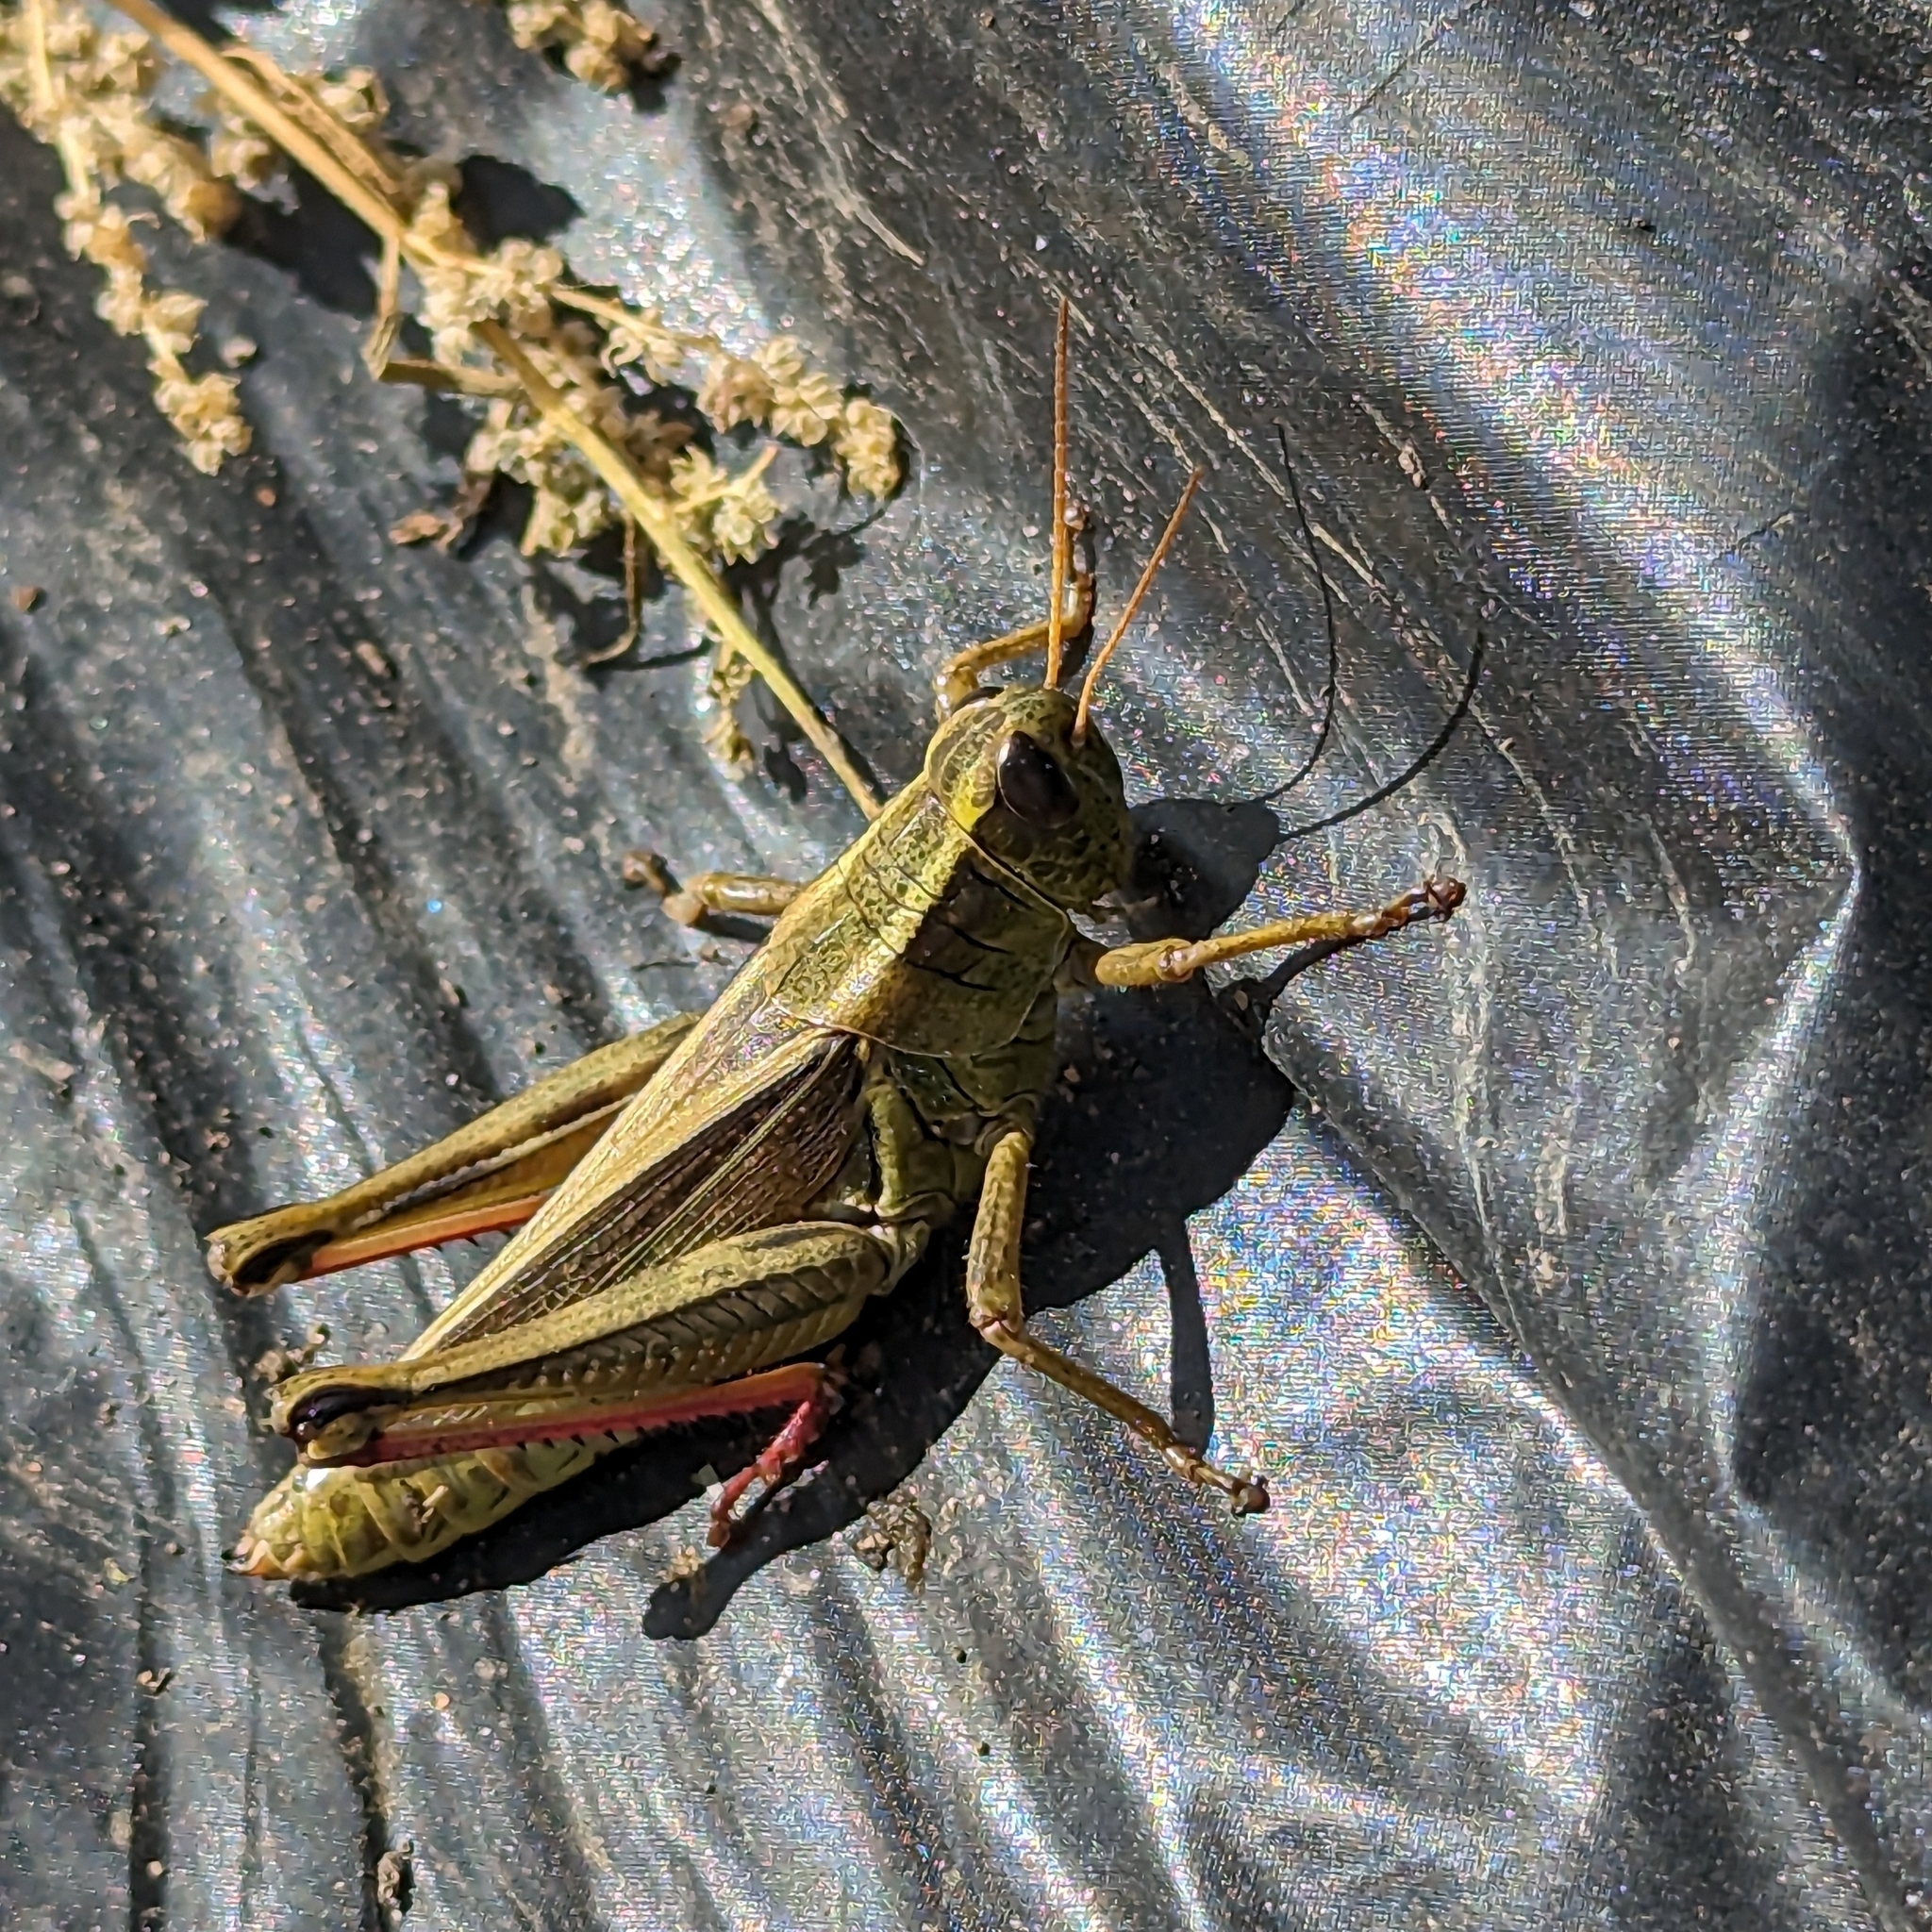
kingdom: Animalia
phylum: Arthropoda
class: Insecta
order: Orthoptera
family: Acrididae
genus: Melanoplus
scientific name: Melanoplus bivittatus
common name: Two-striped grasshopper
